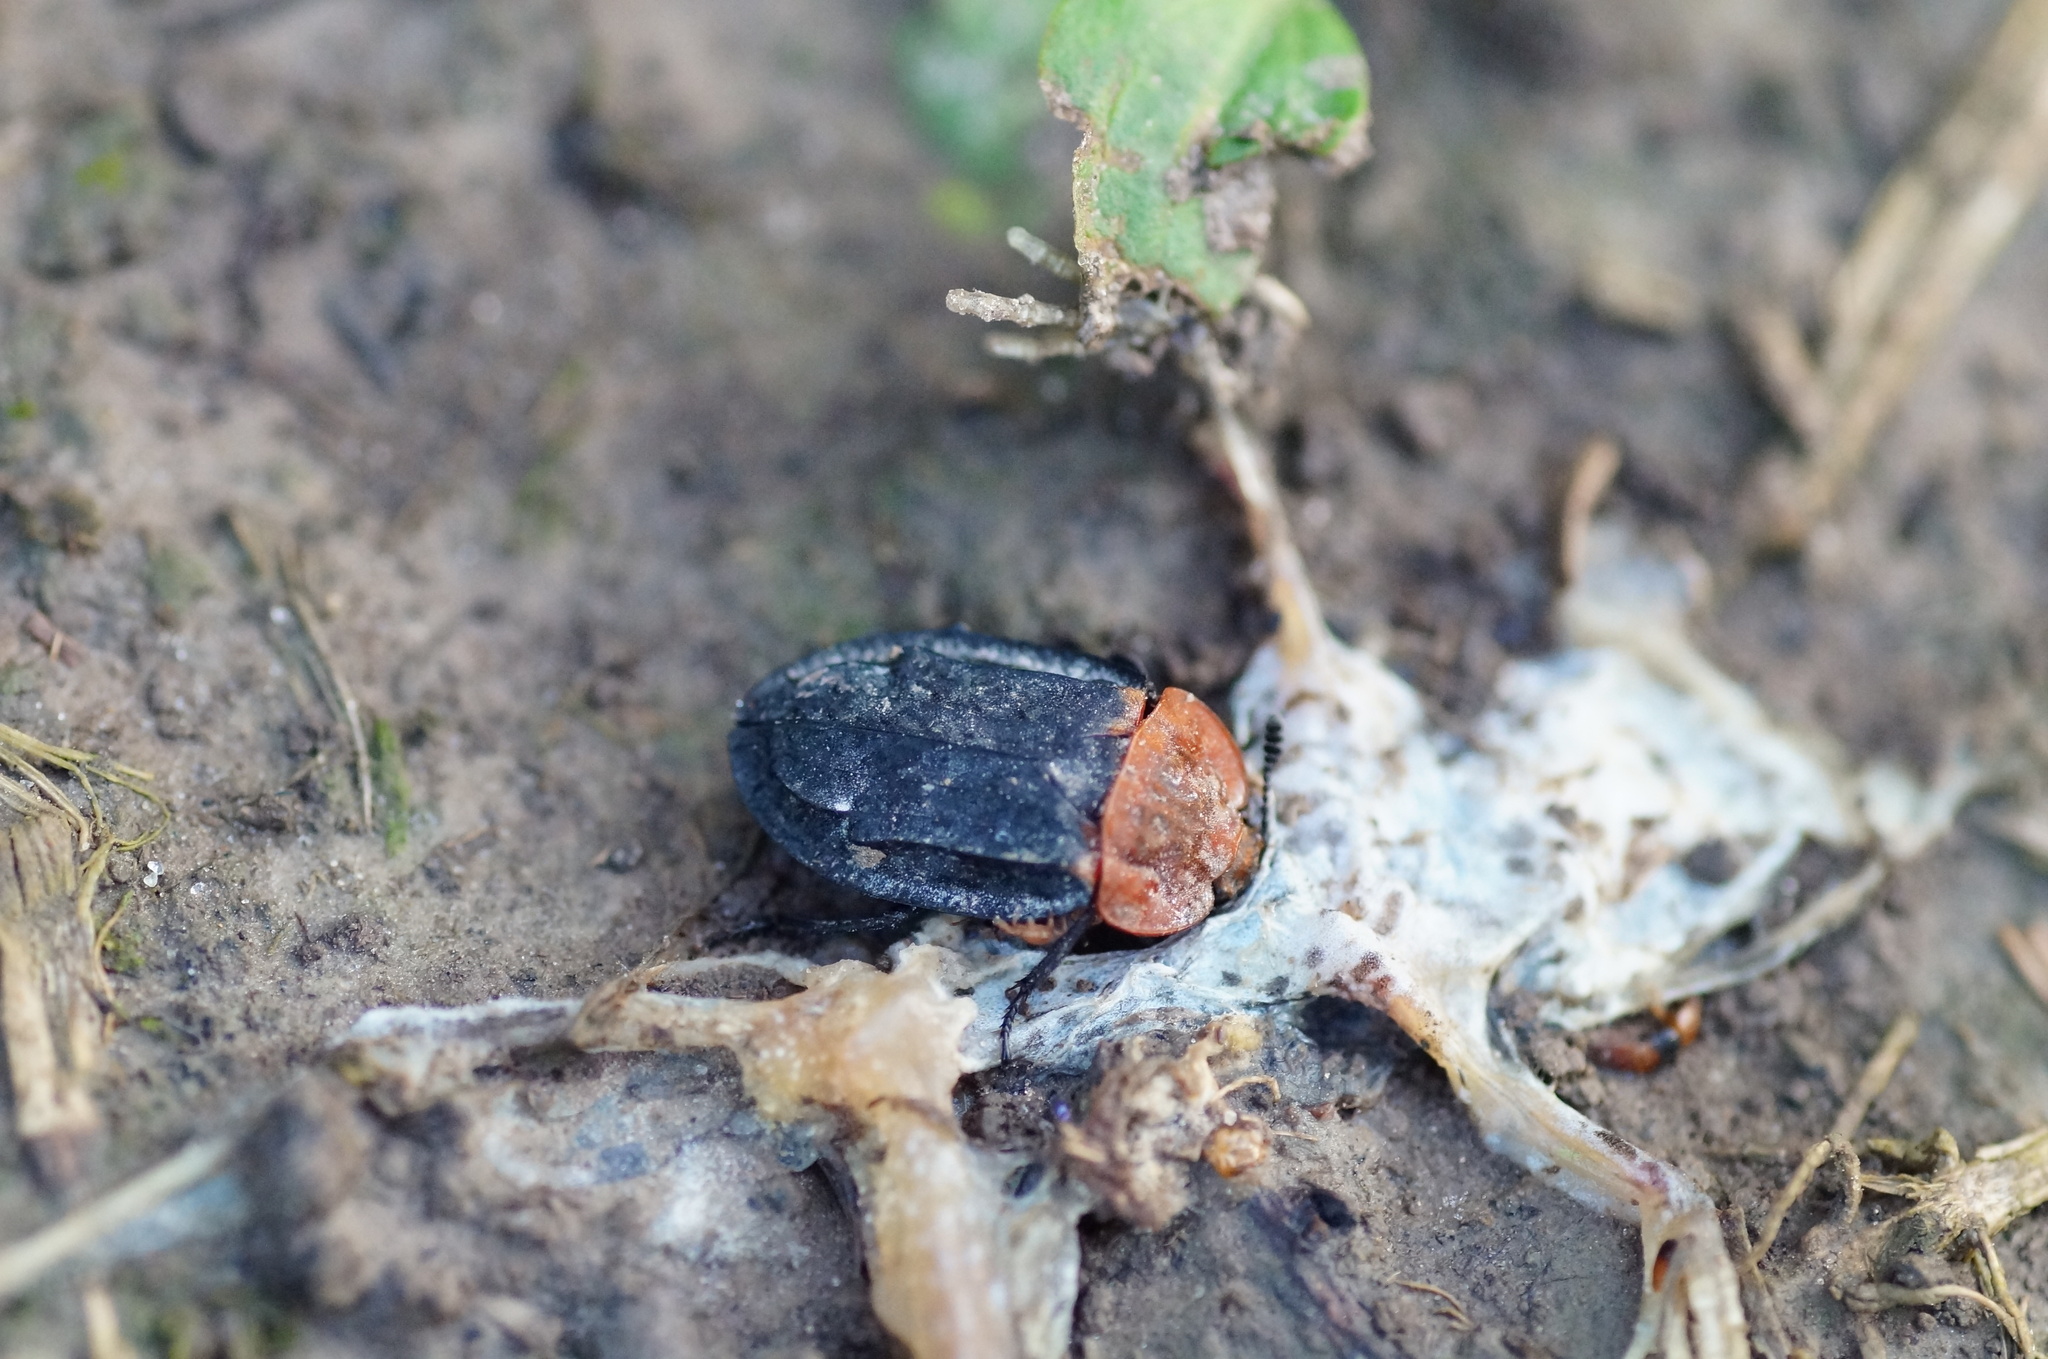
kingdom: Animalia
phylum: Arthropoda
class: Insecta
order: Coleoptera
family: Staphylinidae
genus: Oiceoptoma
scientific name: Oiceoptoma thoracicum
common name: Red-breasted carrion beetle
